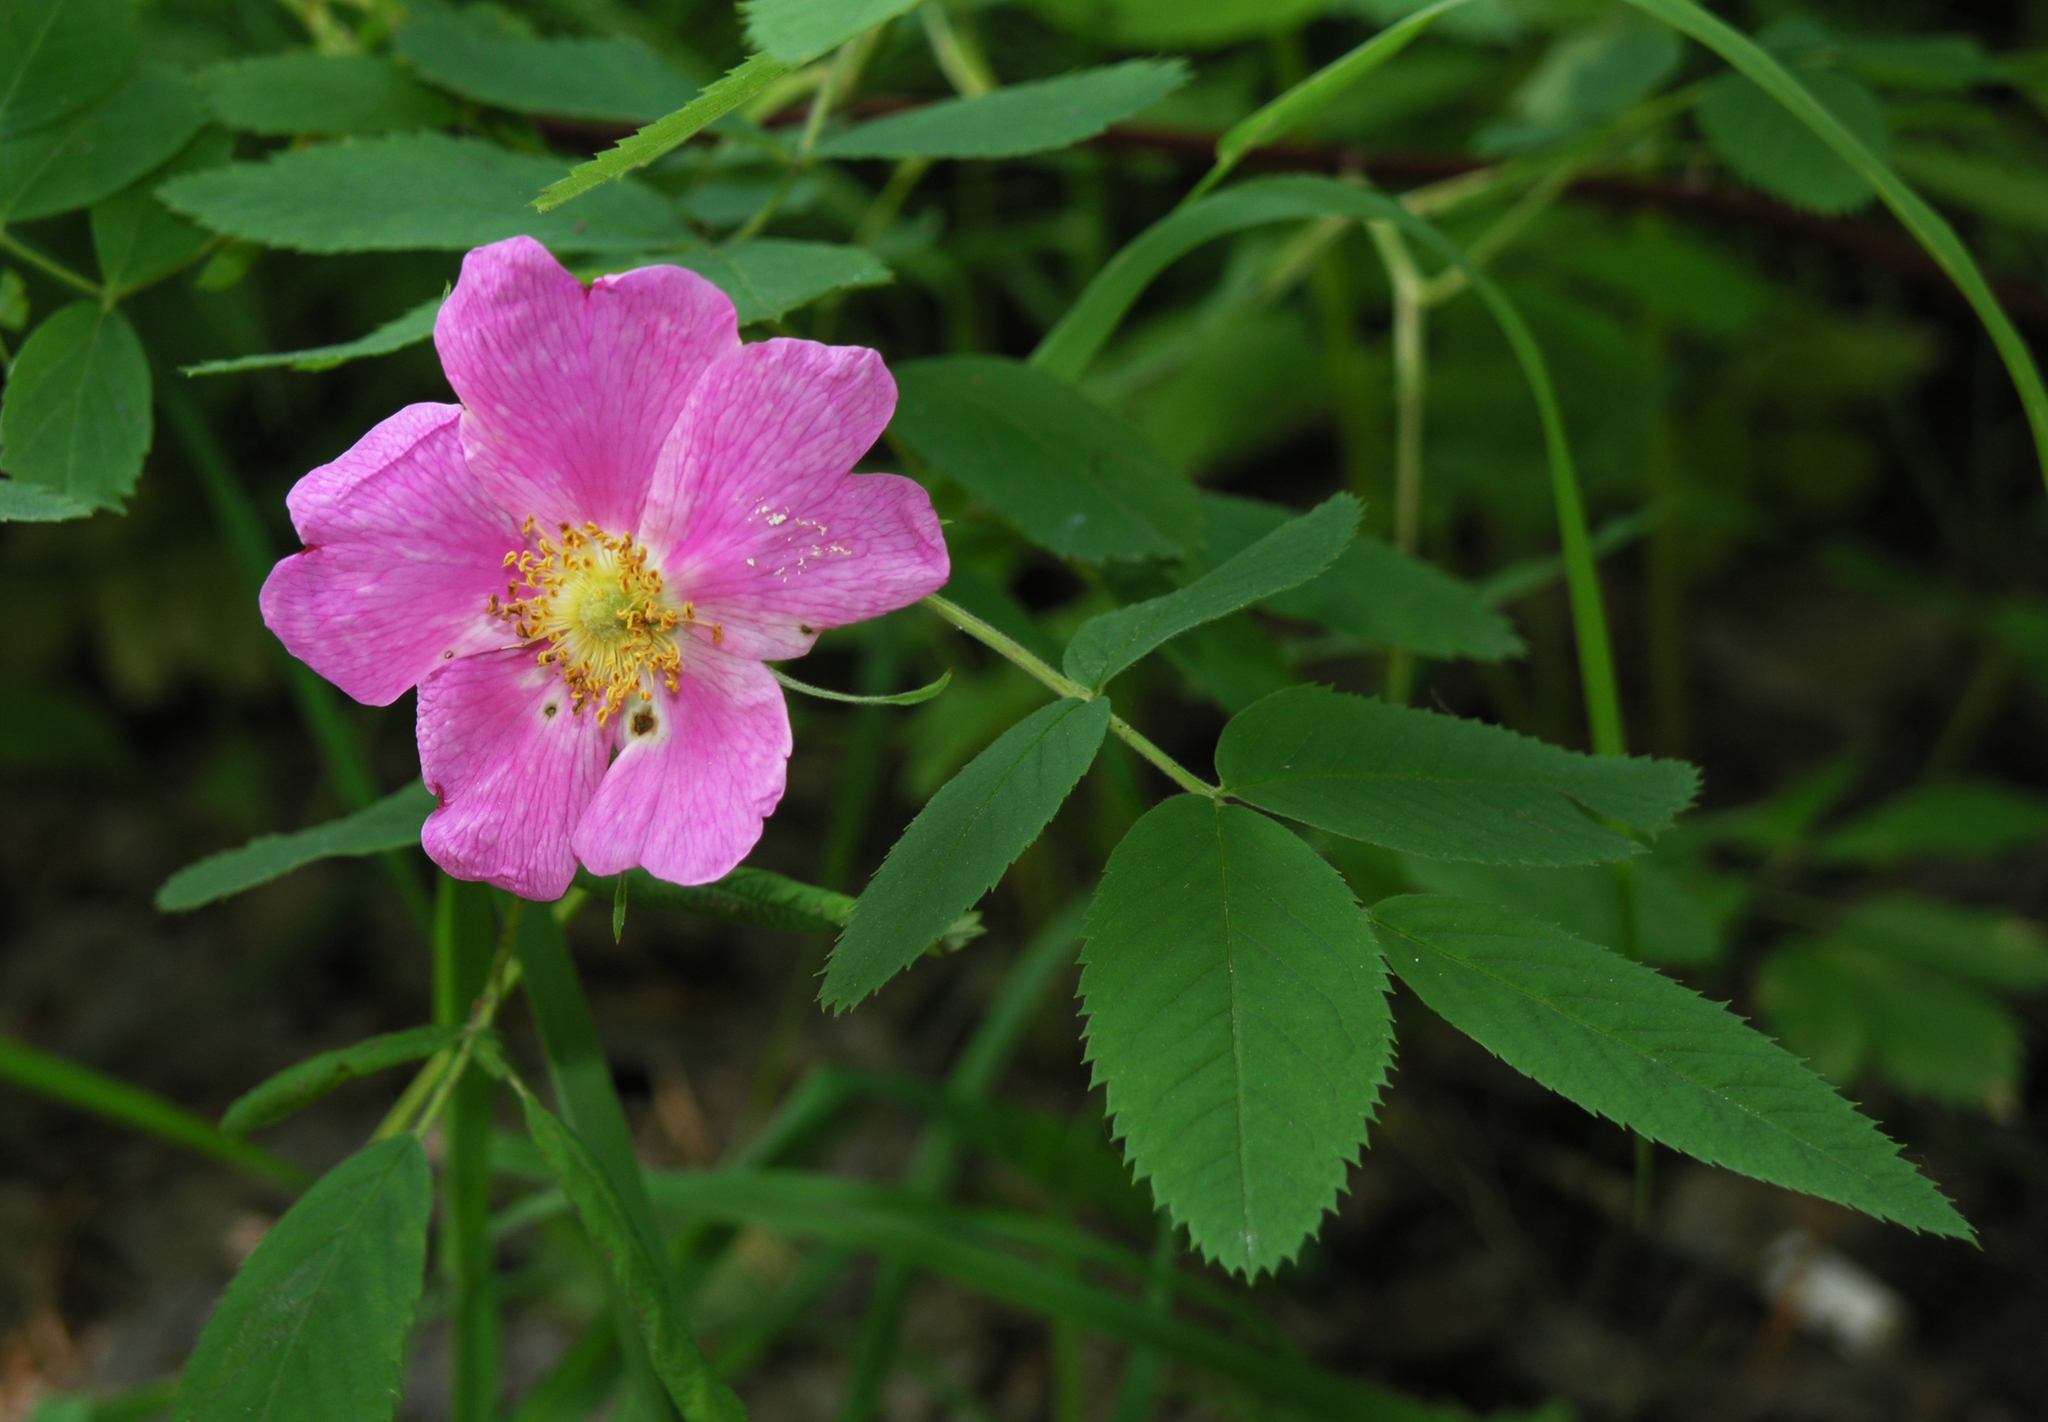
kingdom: Plantae
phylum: Tracheophyta
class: Magnoliopsida
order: Rosales
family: Rosaceae
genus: Rosa
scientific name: Rosa majalis
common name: Cinnamon rose
